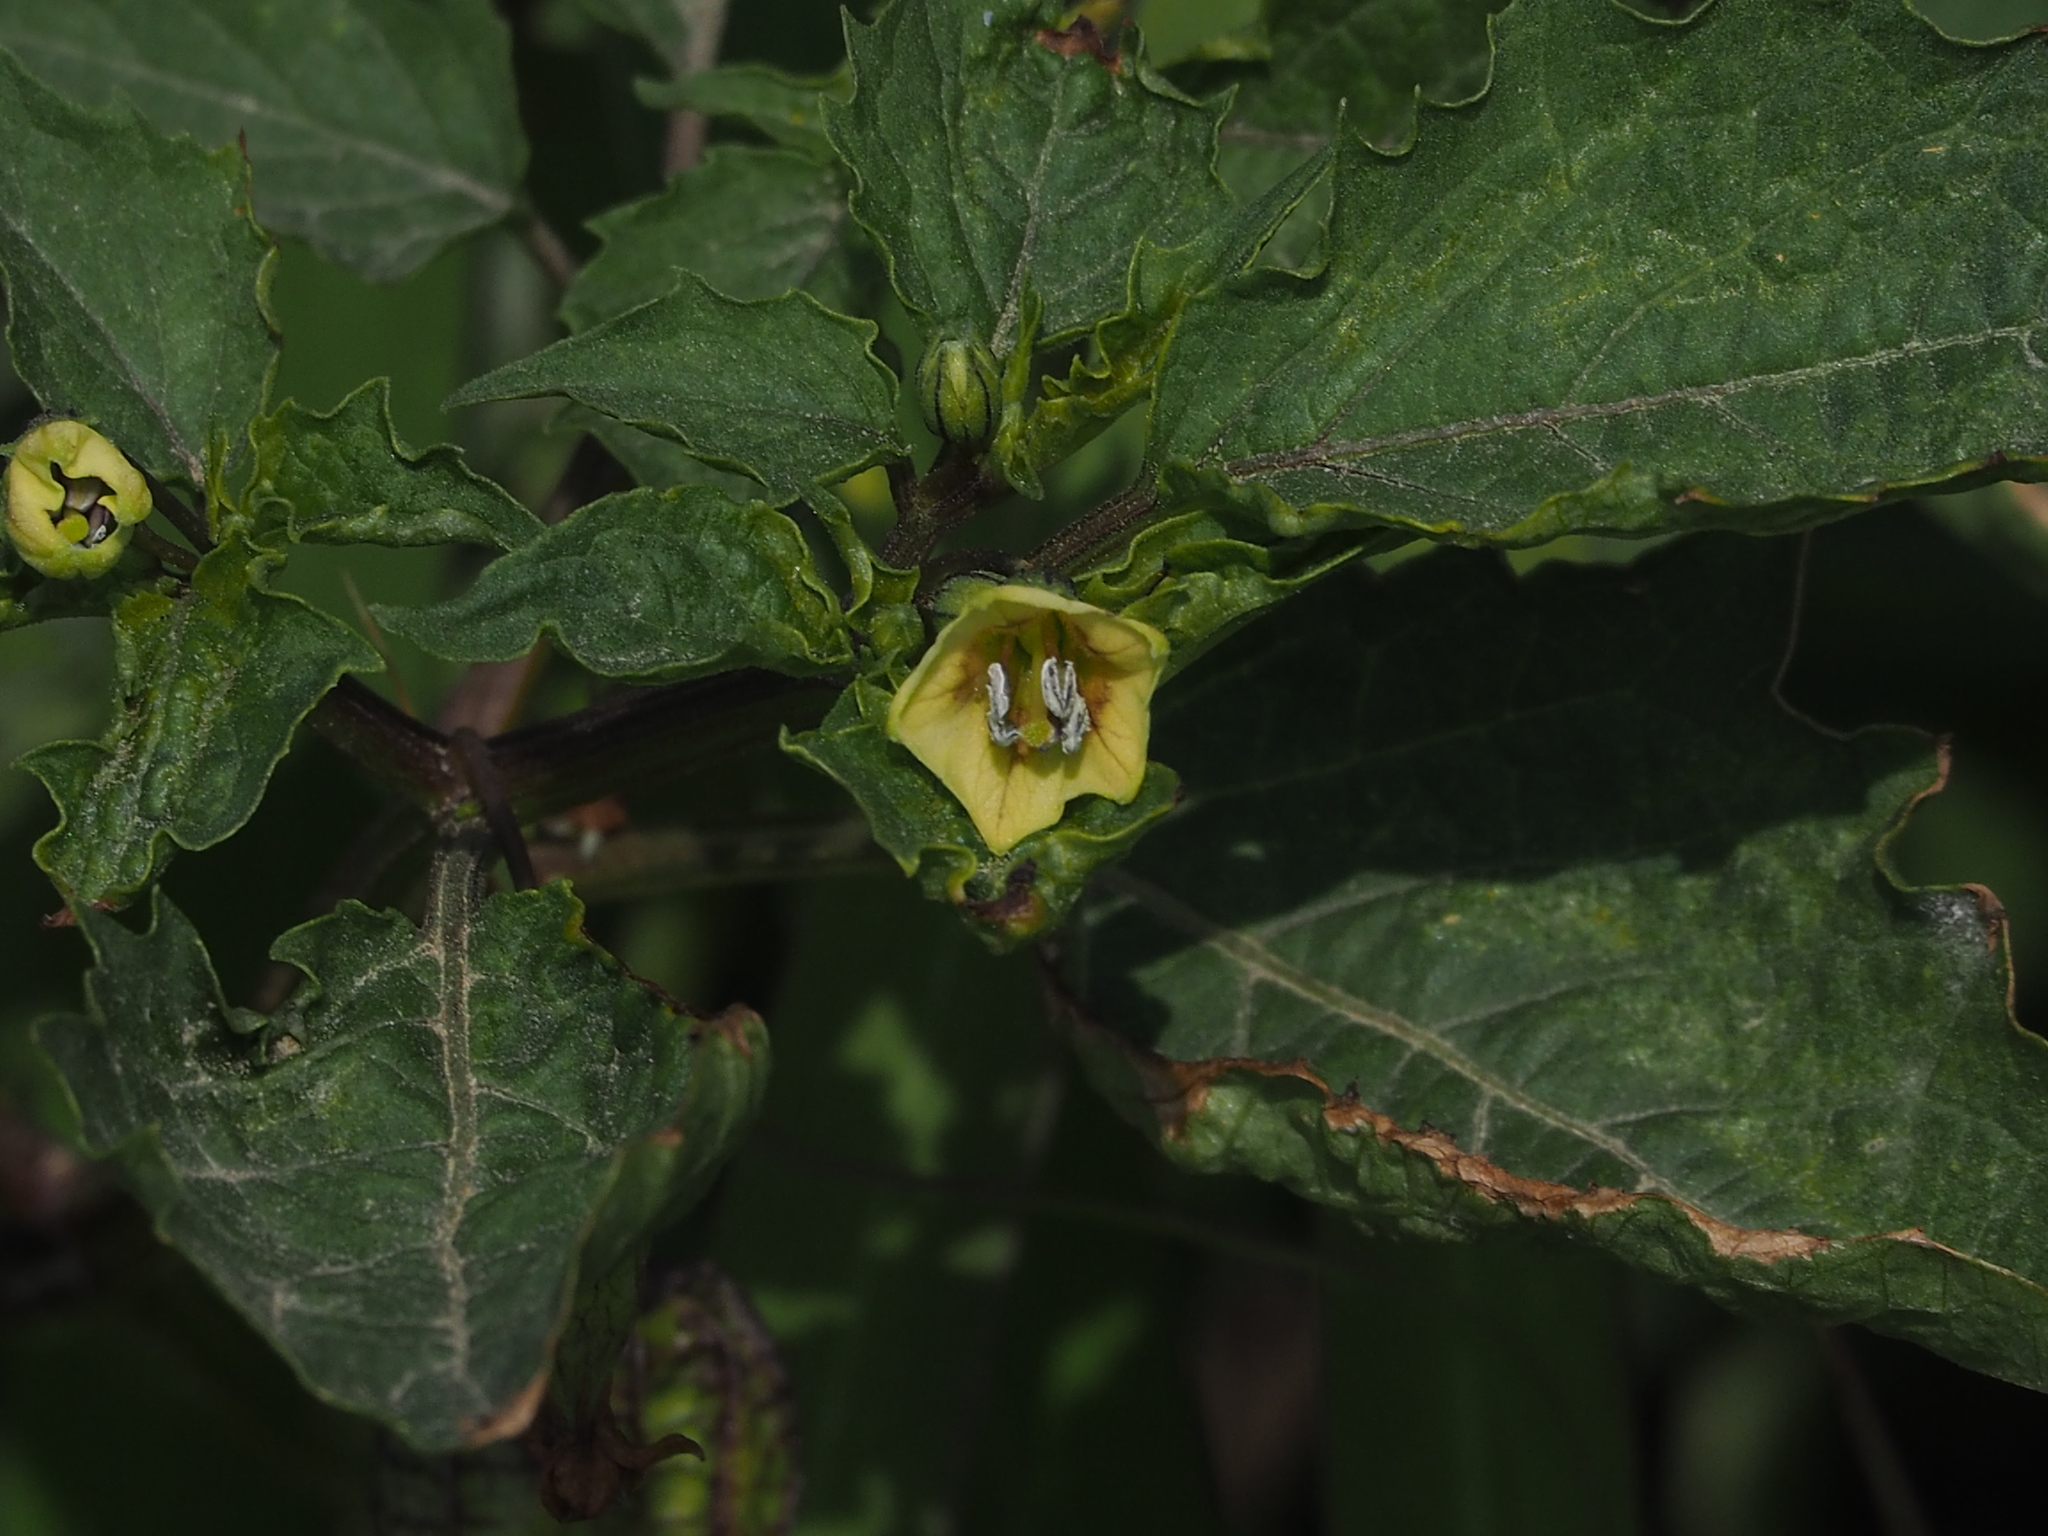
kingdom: Plantae
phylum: Tracheophyta
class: Magnoliopsida
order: Solanales
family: Solanaceae
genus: Physalis
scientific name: Physalis angulata
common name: Angular winter-cherry
